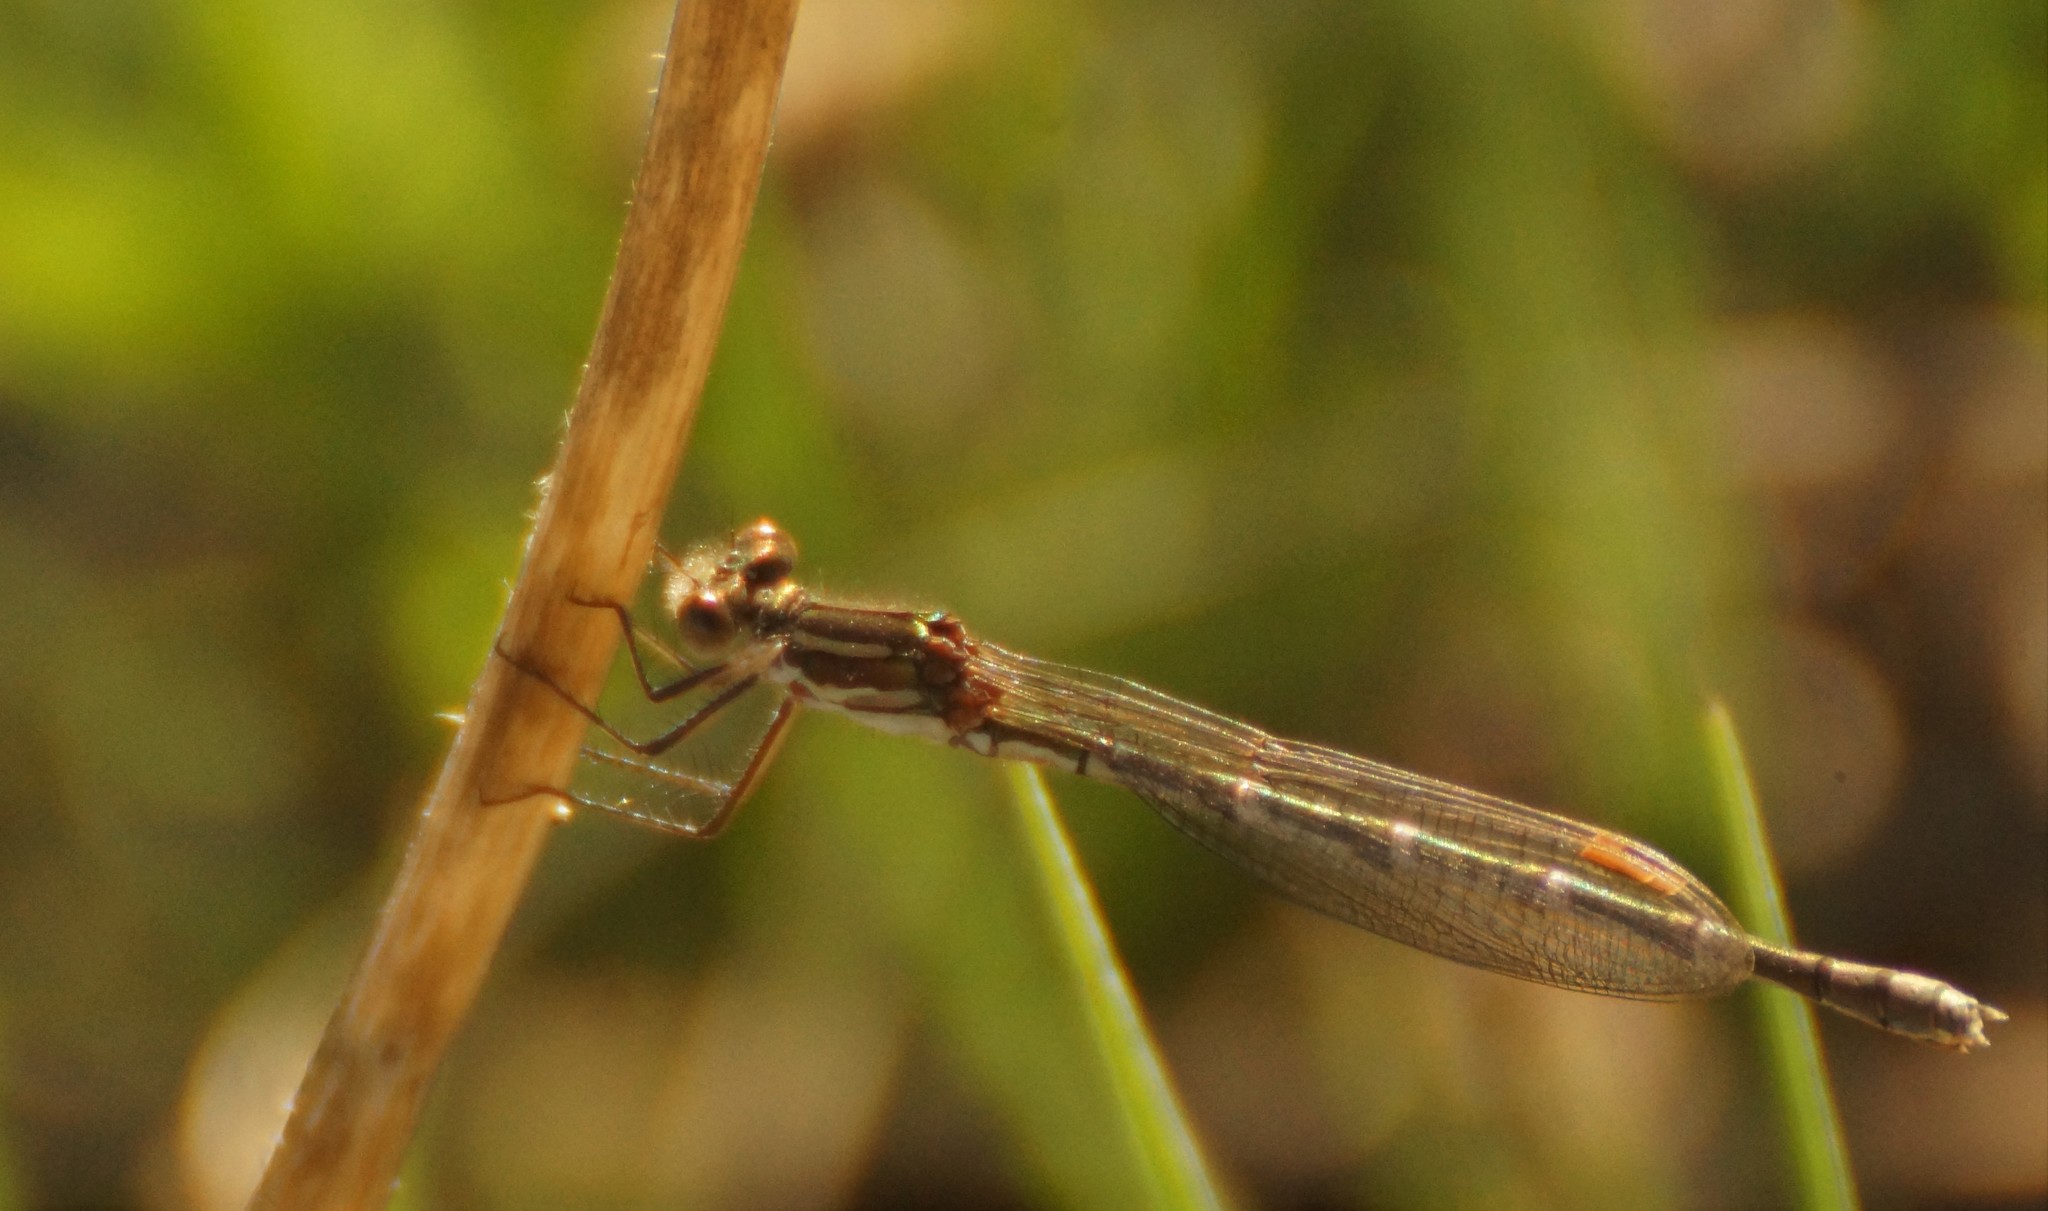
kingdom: Animalia
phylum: Arthropoda
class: Insecta
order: Odonata
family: Lestidae
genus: Austrolestes
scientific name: Austrolestes annulosus
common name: Blue ringtail
